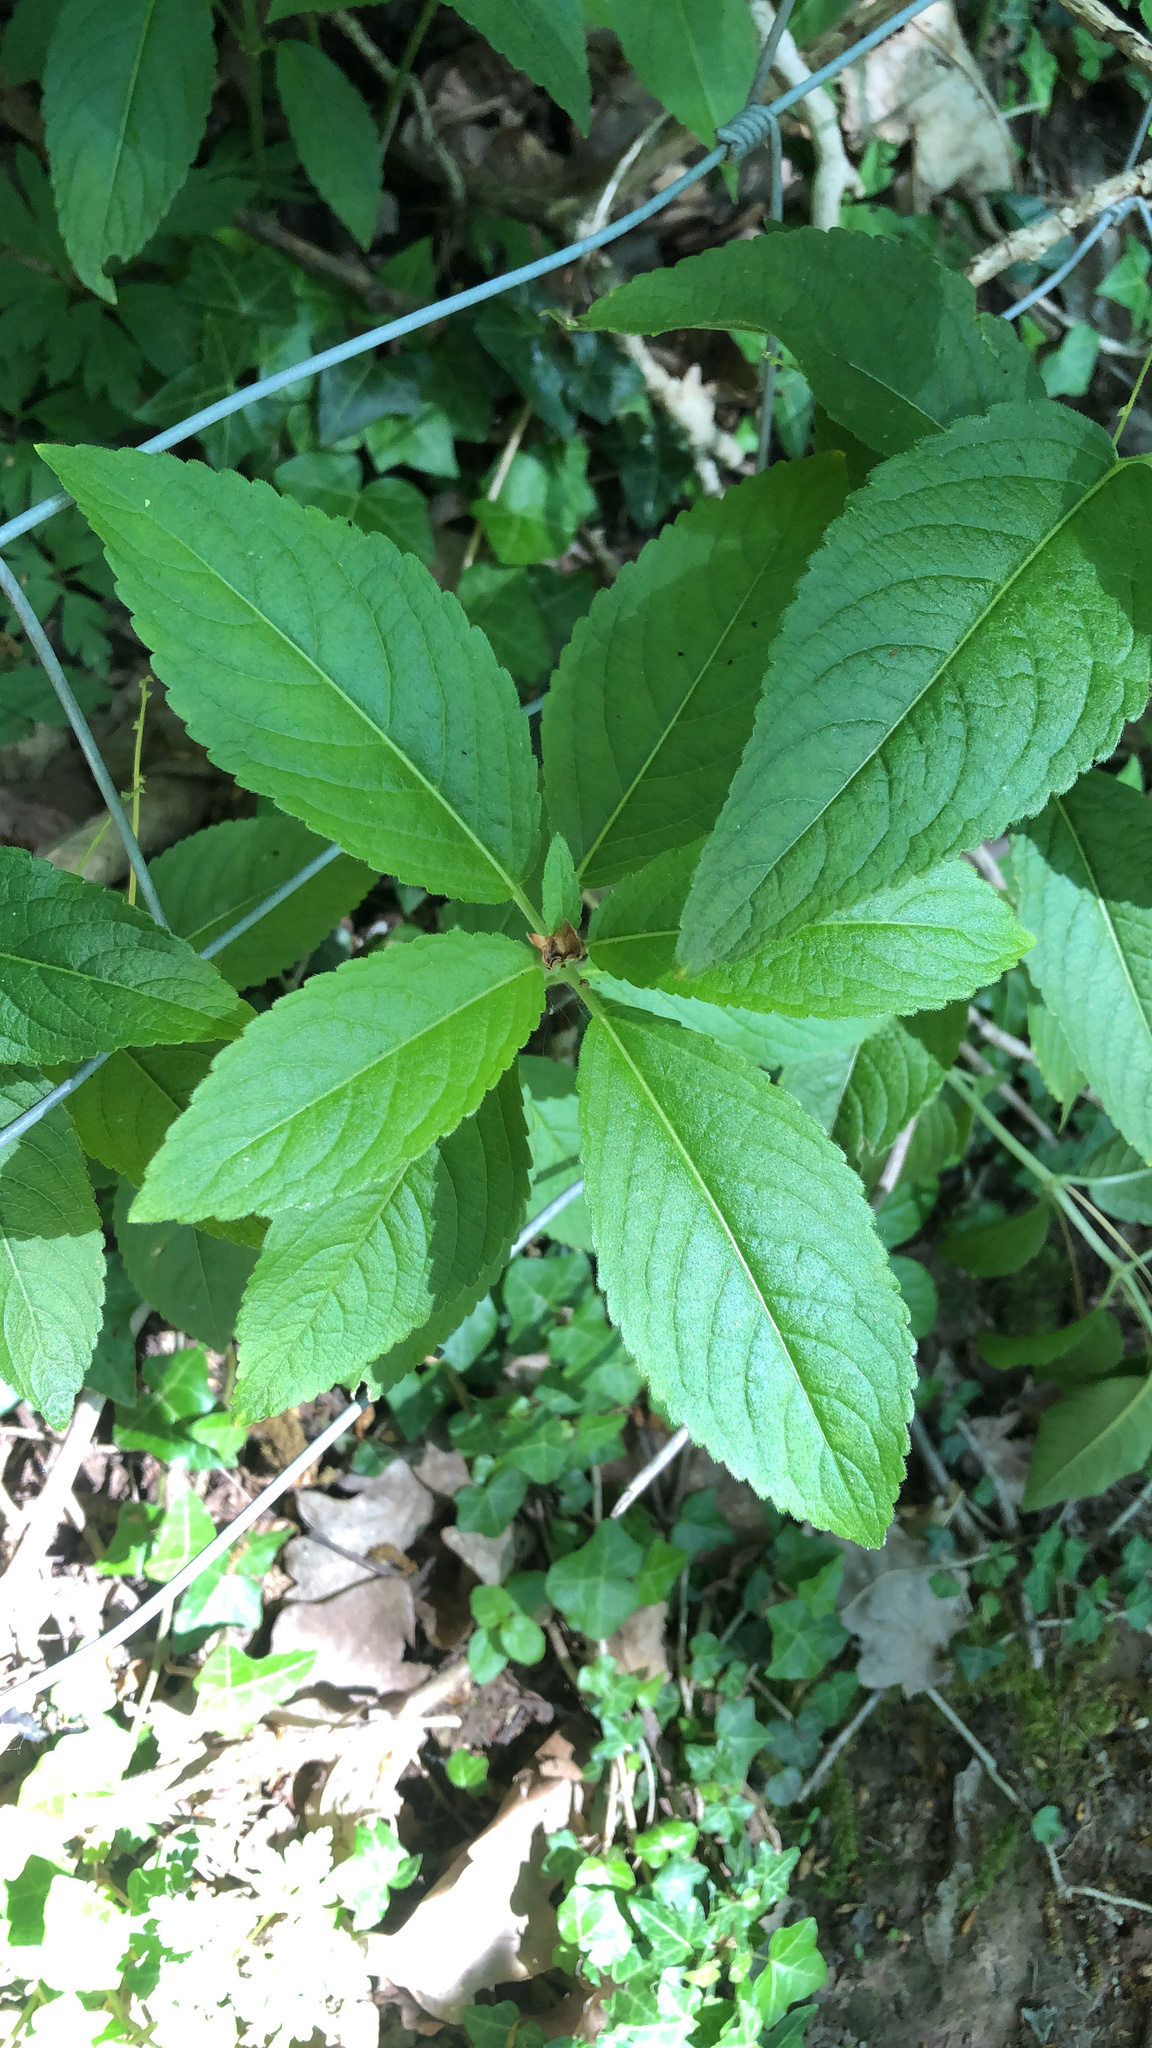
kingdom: Plantae
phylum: Tracheophyta
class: Magnoliopsida
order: Malpighiales
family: Euphorbiaceae
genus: Mercurialis
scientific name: Mercurialis perennis
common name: Dog mercury
